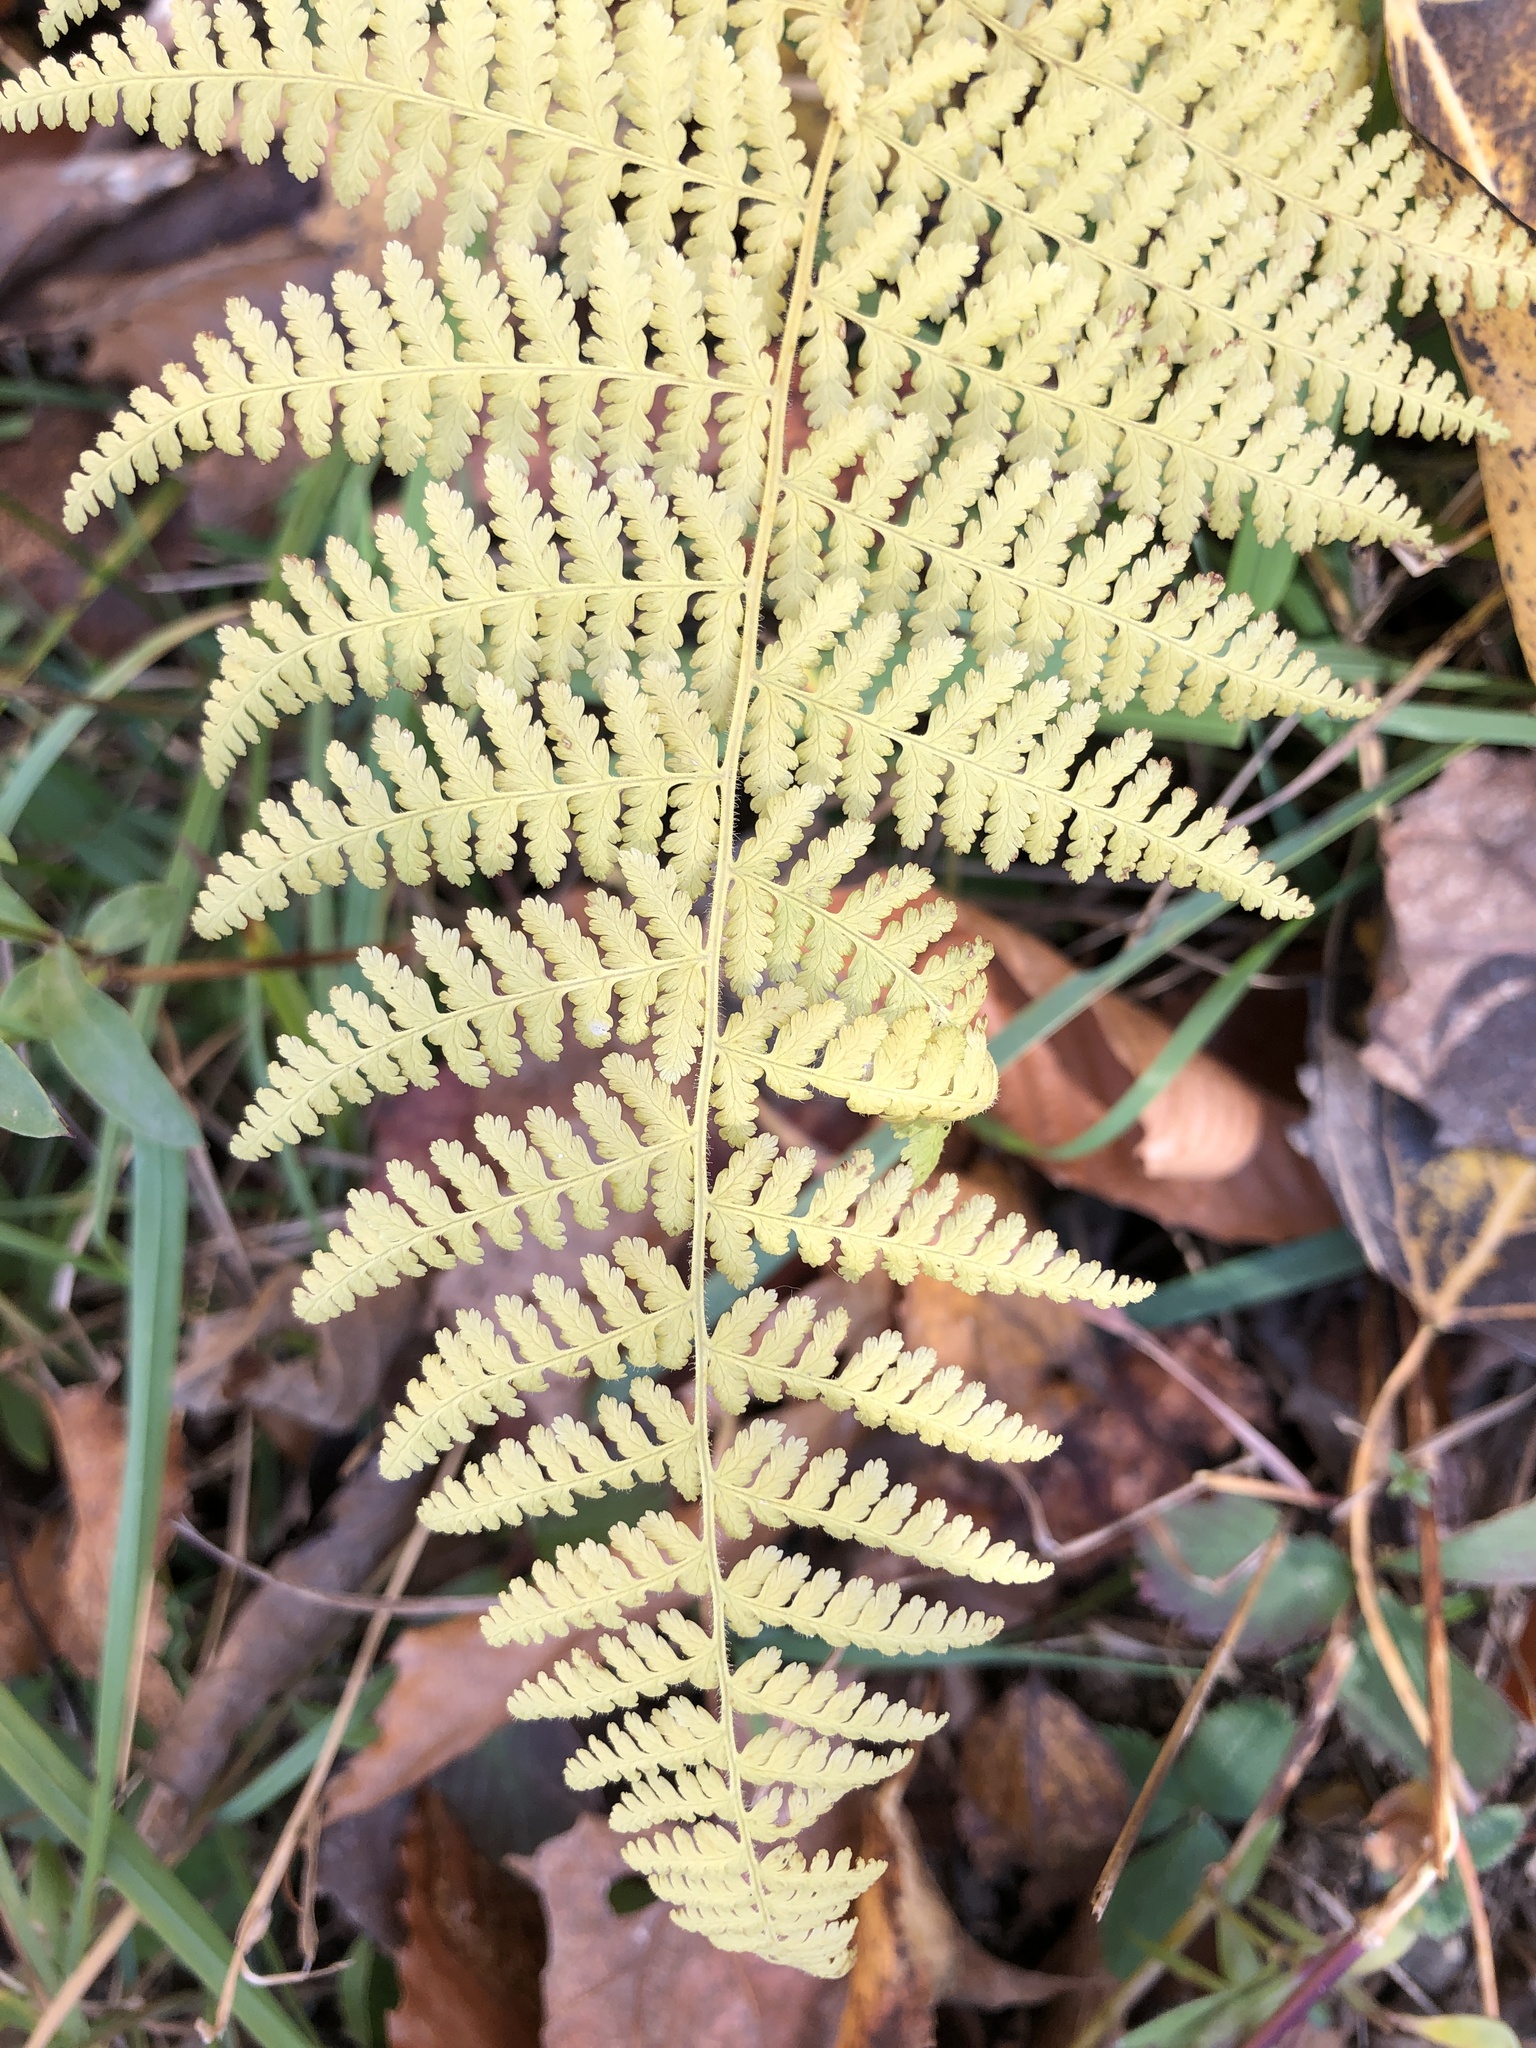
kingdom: Plantae
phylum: Tracheophyta
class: Polypodiopsida
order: Polypodiales
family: Dennstaedtiaceae
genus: Sitobolium
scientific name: Sitobolium punctilobum
